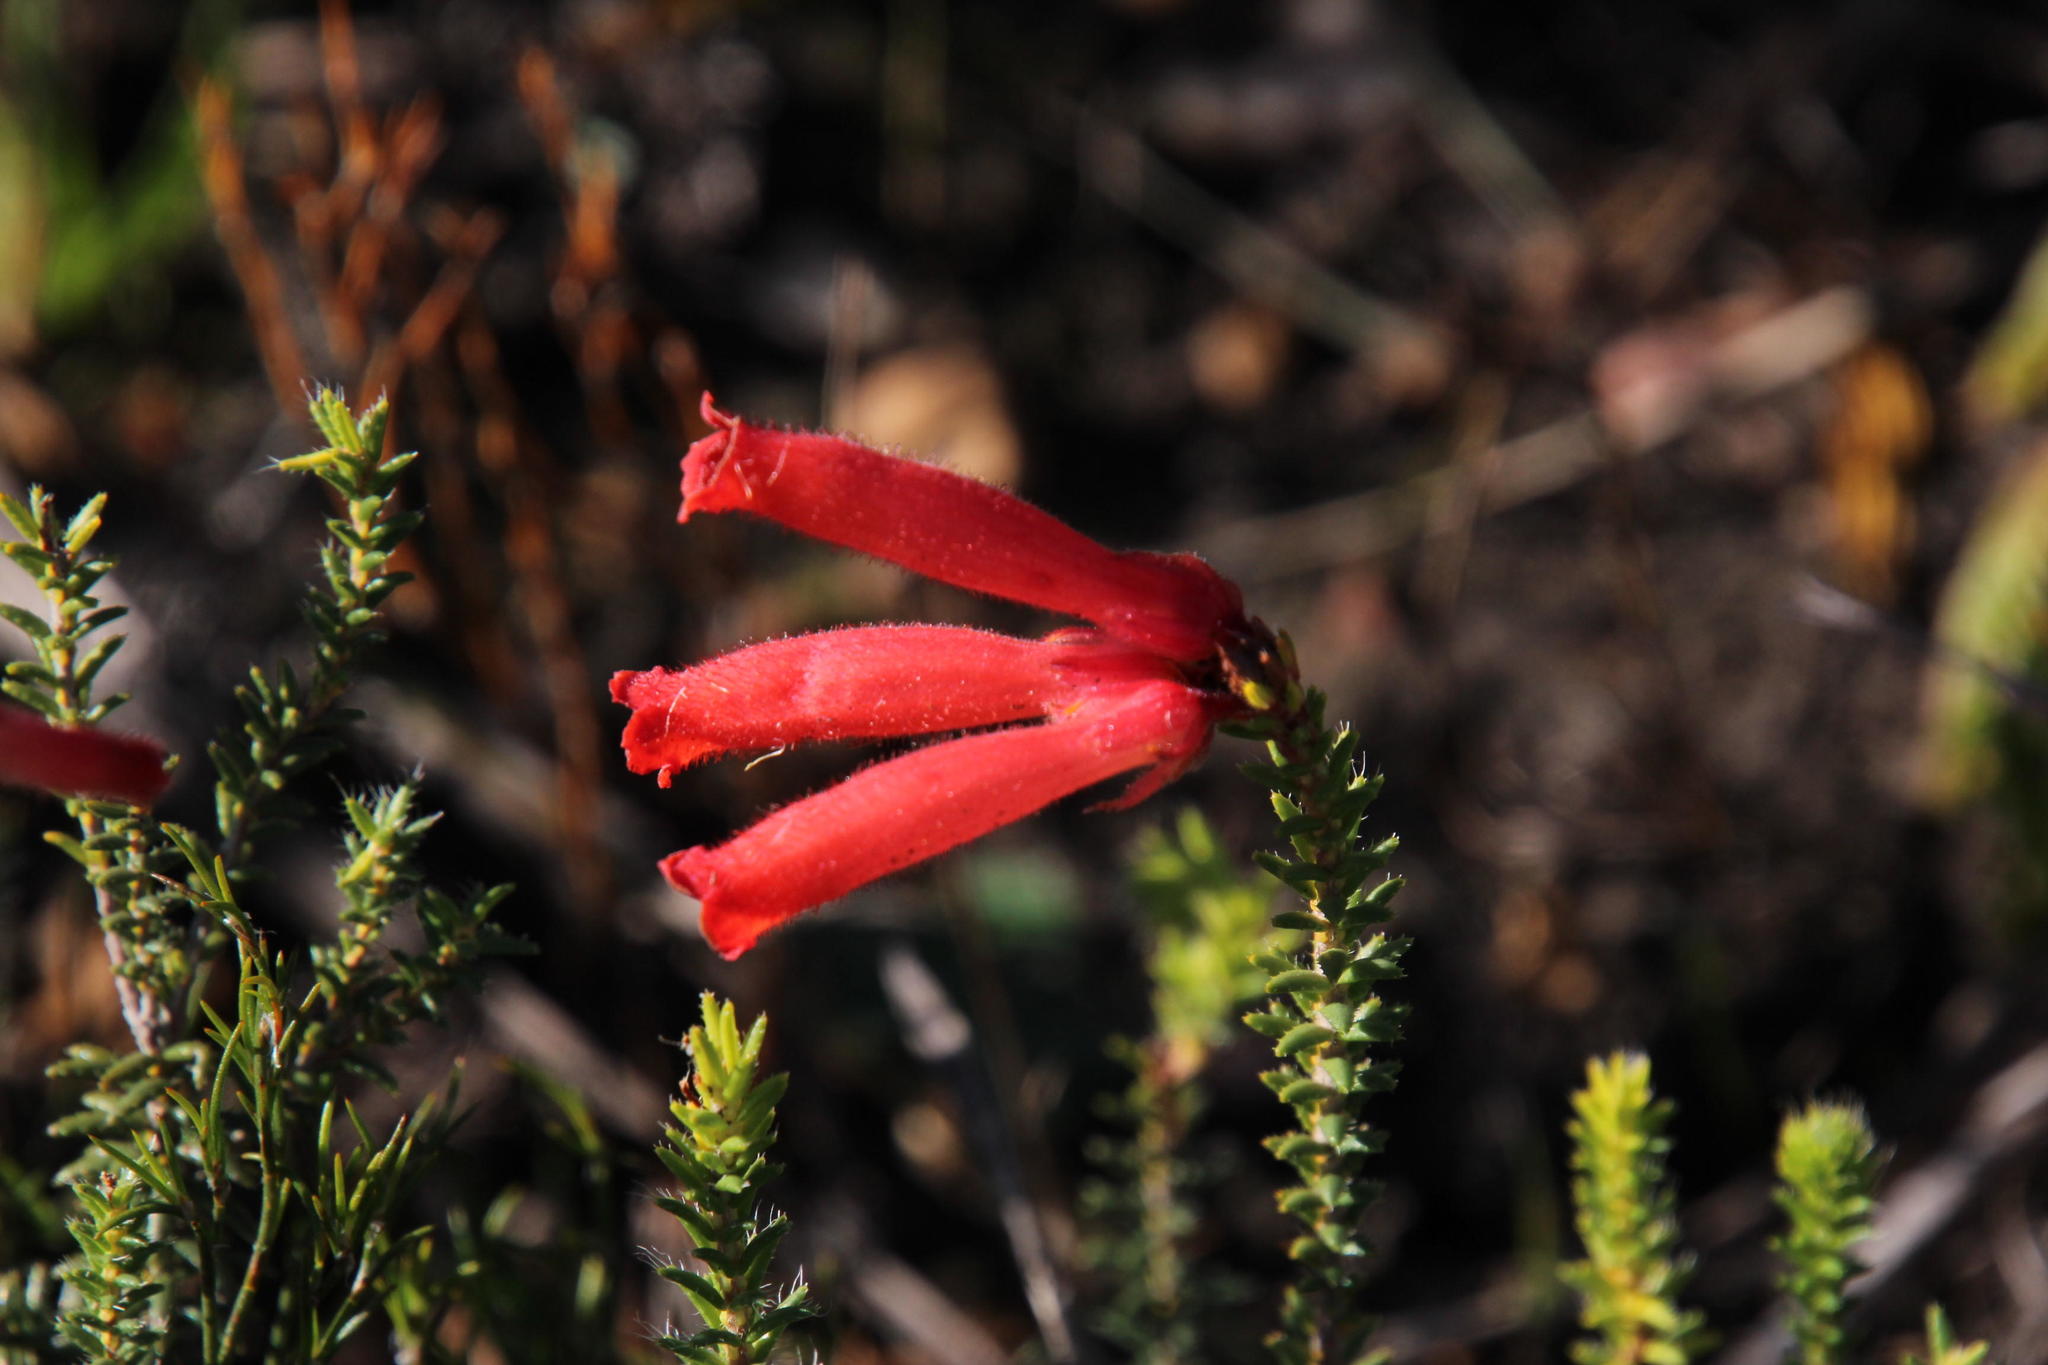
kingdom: Plantae
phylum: Tracheophyta
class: Magnoliopsida
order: Ericales
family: Ericaceae
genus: Erica
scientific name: Erica cerinthoides
